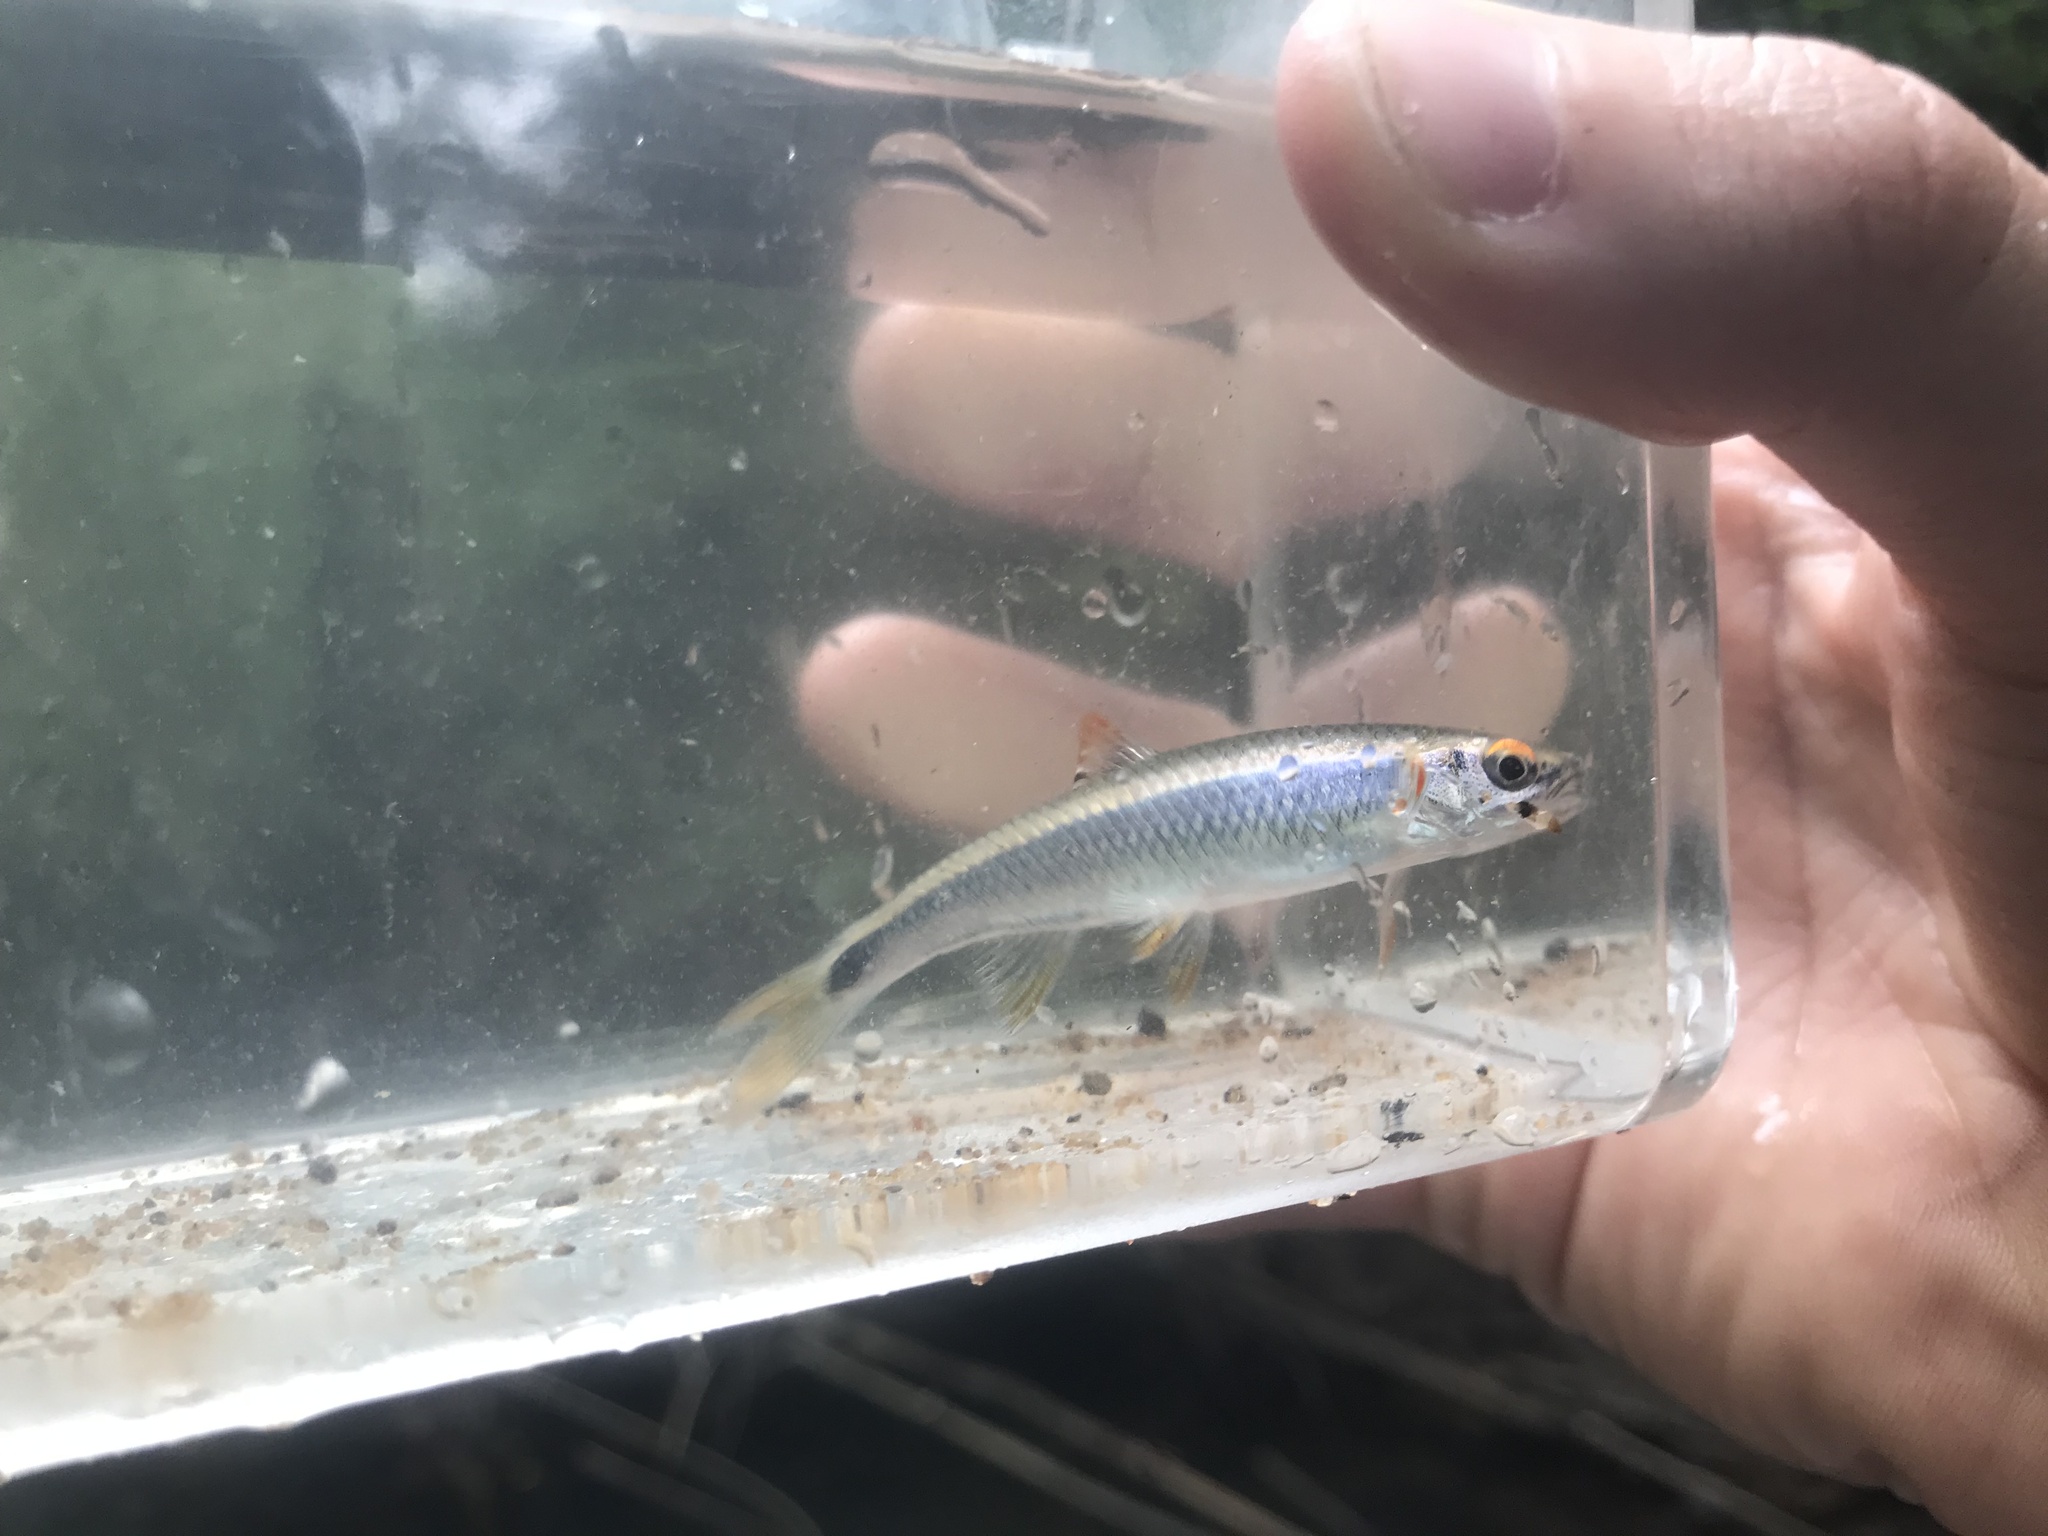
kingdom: Animalia
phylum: Chordata
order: Cypriniformes
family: Cyprinidae
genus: Cyprinella
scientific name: Cyprinella trichroistia
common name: Tricolor shiner
